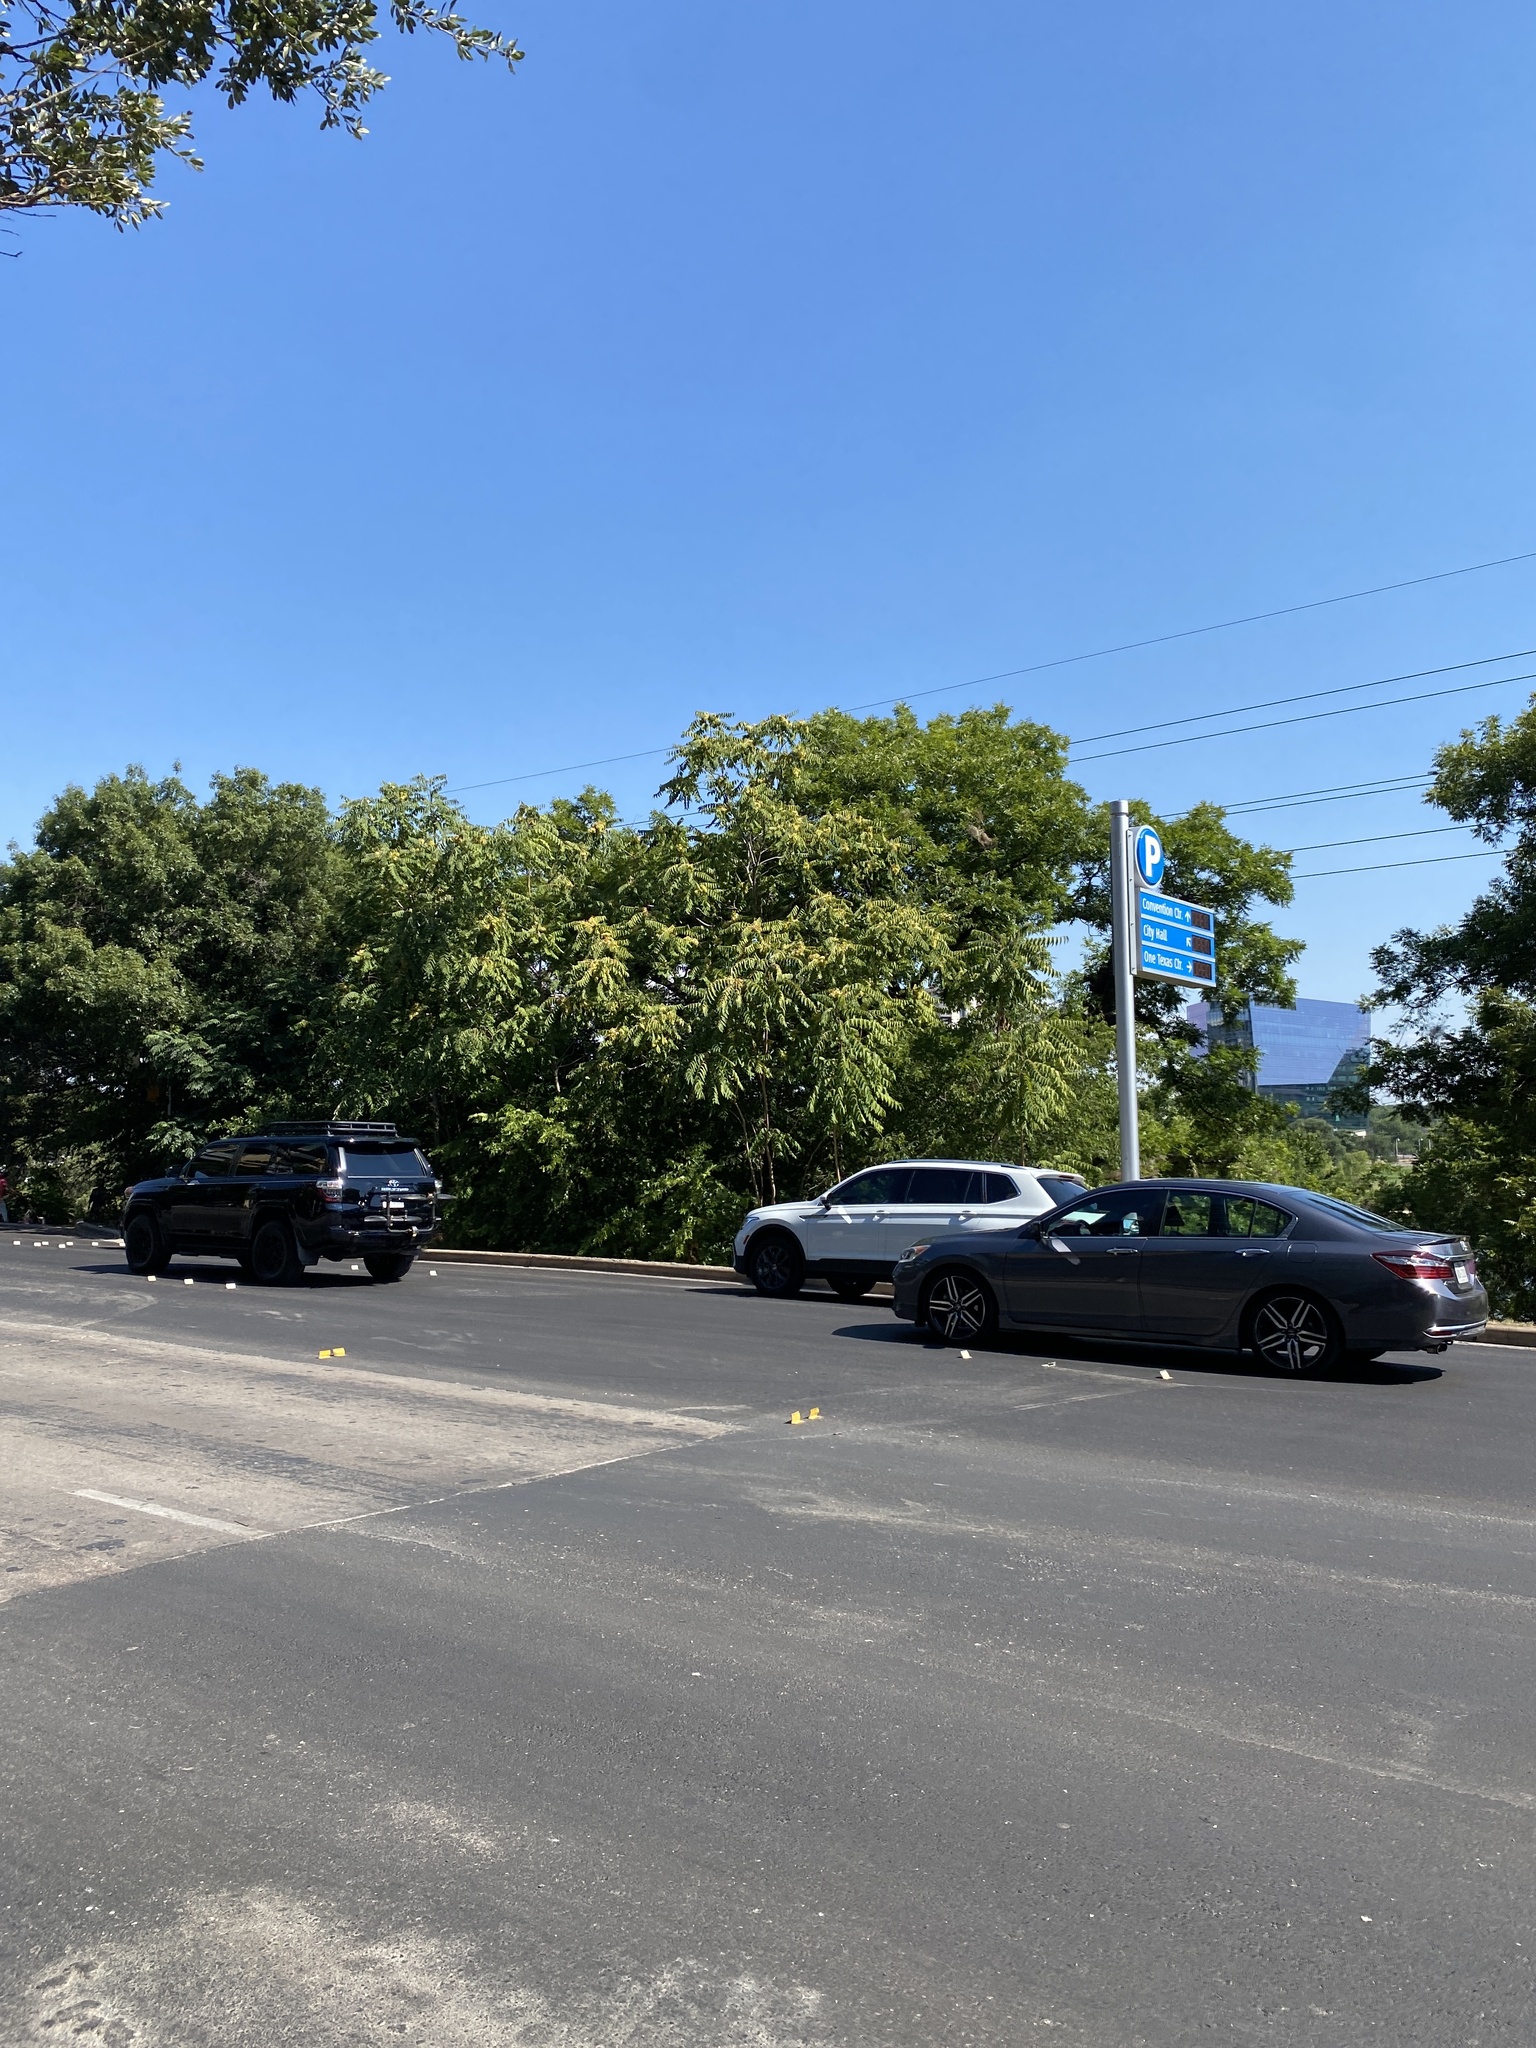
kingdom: Plantae
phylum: Tracheophyta
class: Magnoliopsida
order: Sapindales
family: Simaroubaceae
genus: Ailanthus
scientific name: Ailanthus altissima
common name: Tree-of-heaven
